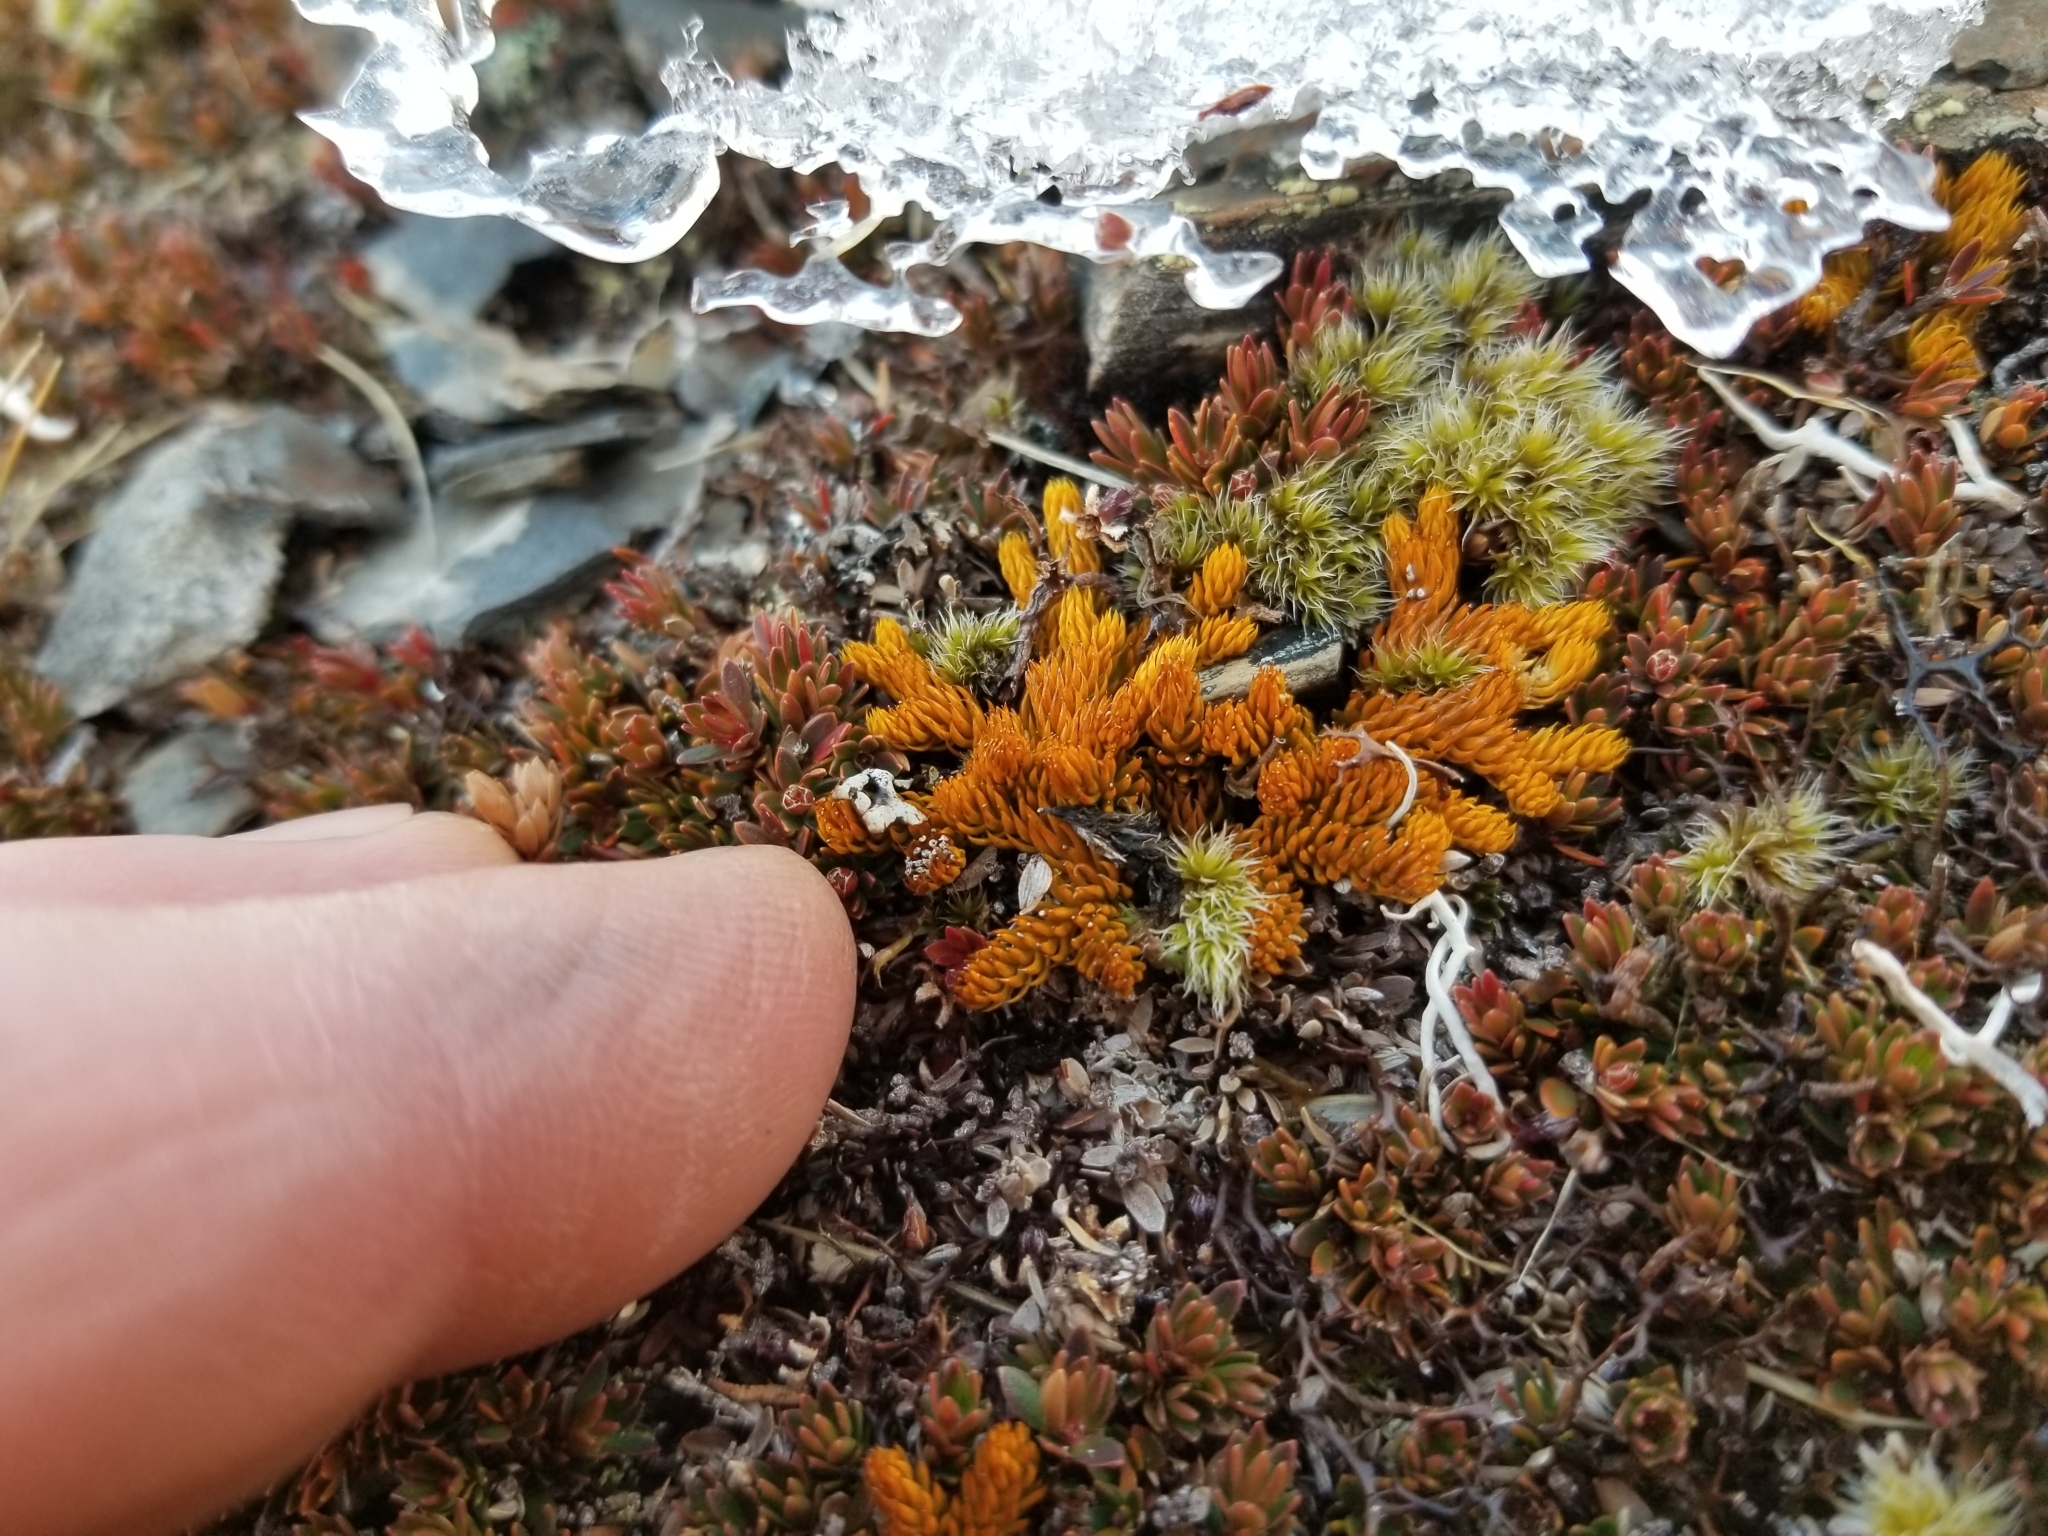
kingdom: Plantae
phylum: Tracheophyta
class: Lycopodiopsida
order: Lycopodiales
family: Lycopodiaceae
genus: Austrolycopodium
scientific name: Austrolycopodium fastigiatum
